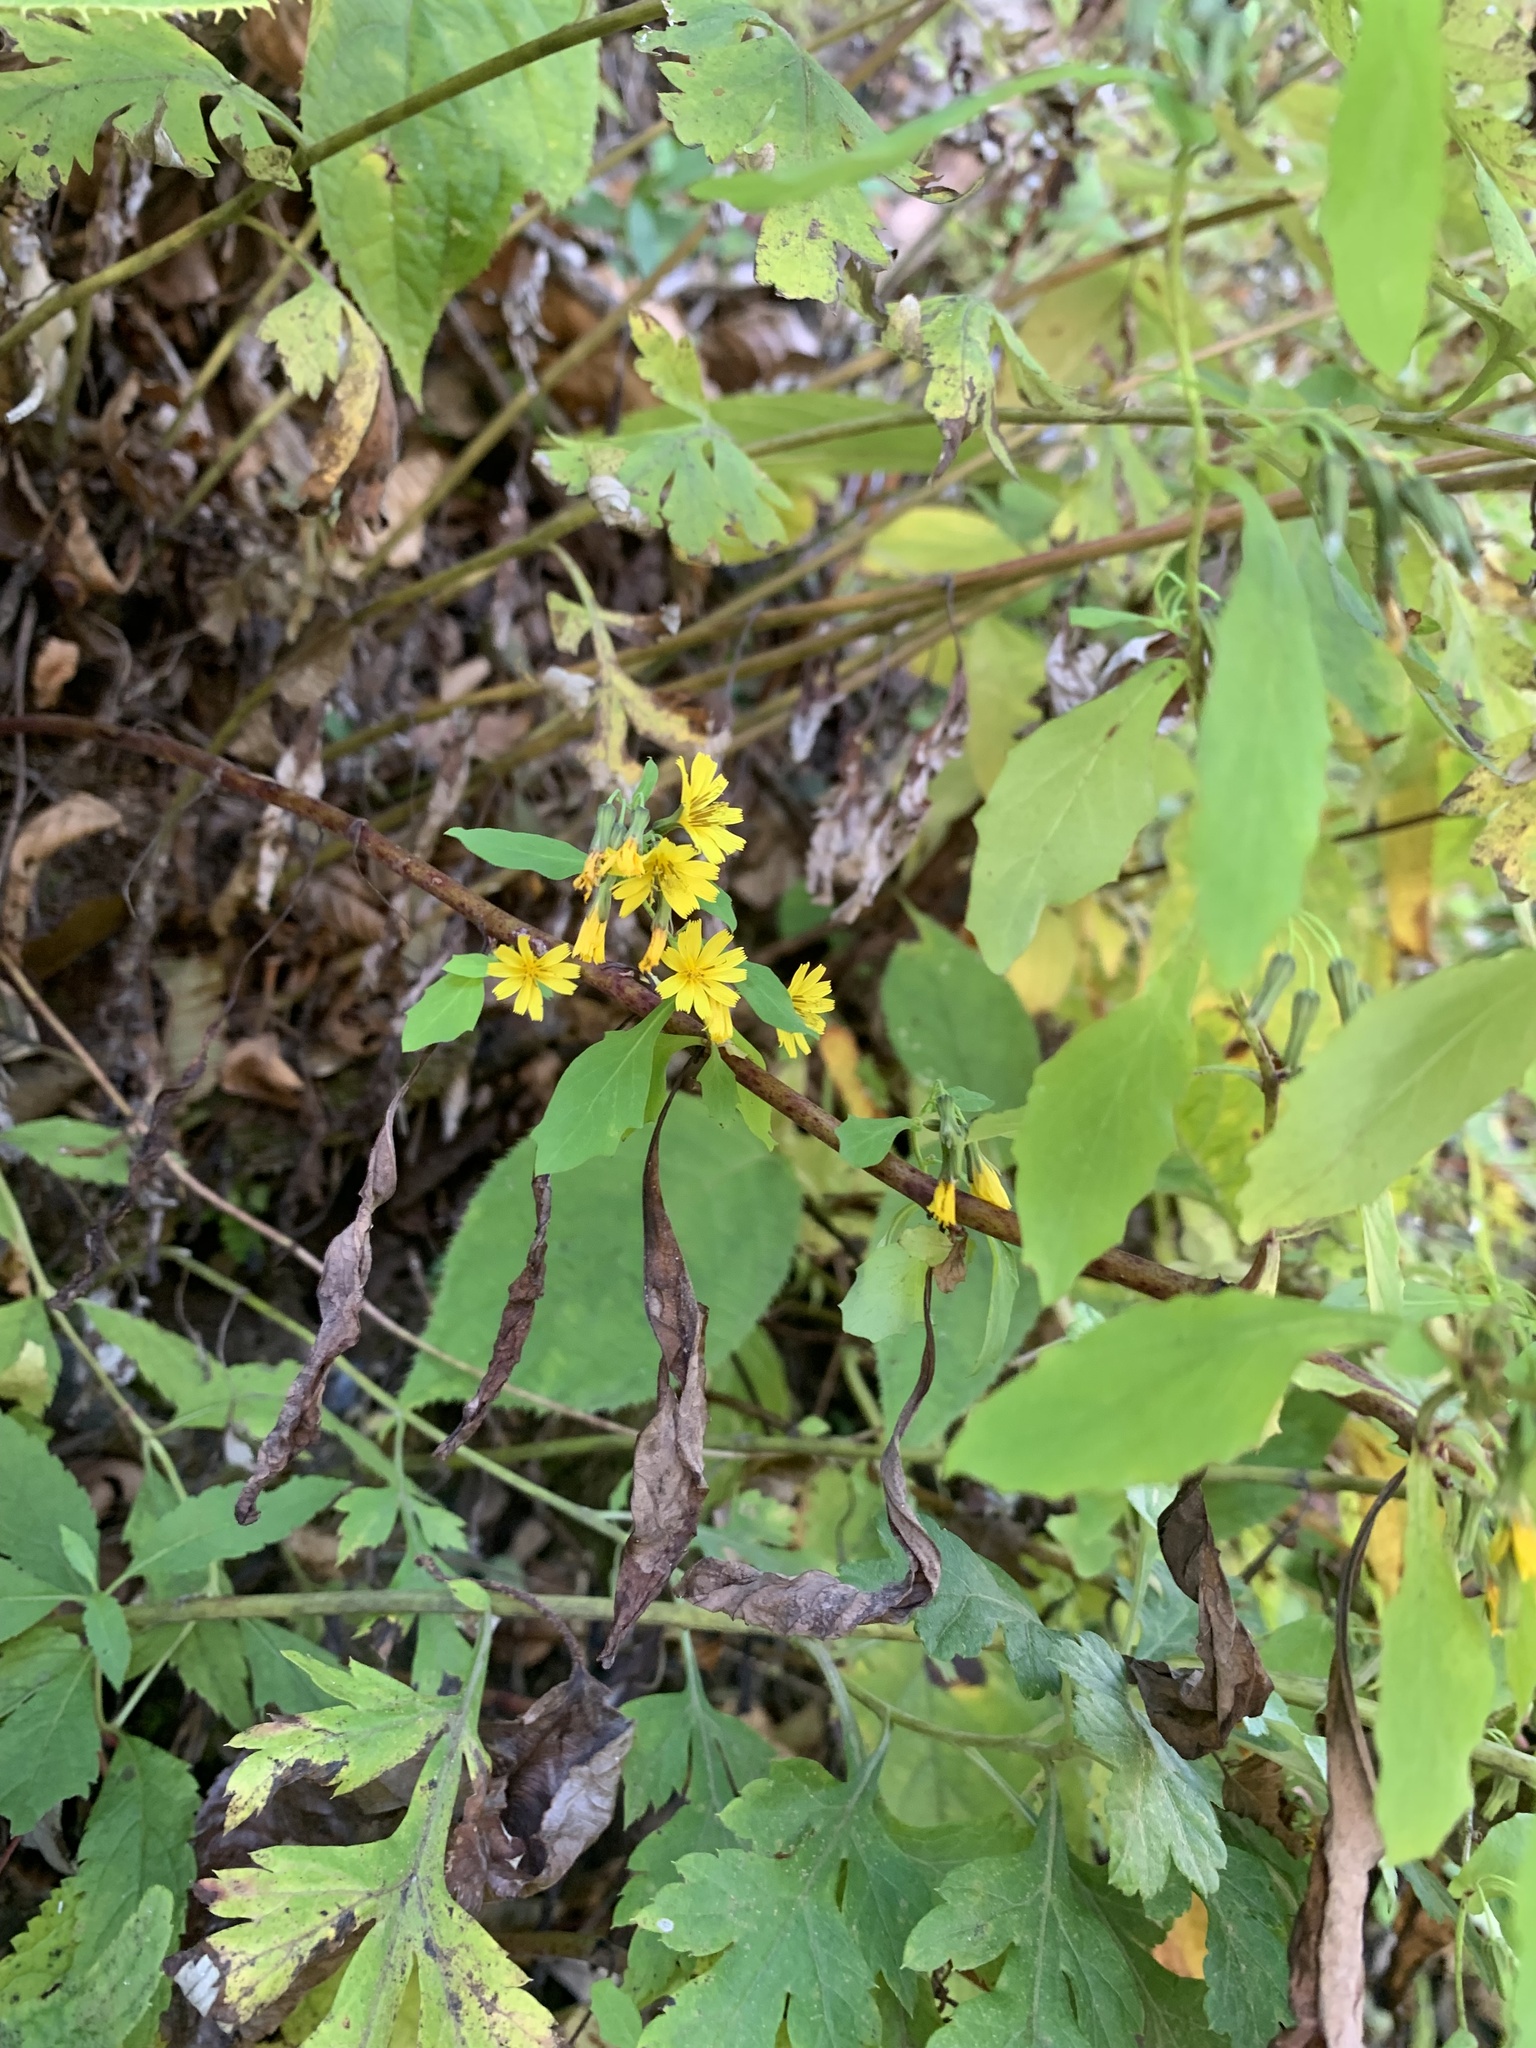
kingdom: Plantae
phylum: Tracheophyta
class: Magnoliopsida
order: Asterales
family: Asteraceae
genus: Crepidiastrum
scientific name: Crepidiastrum denticulatum
